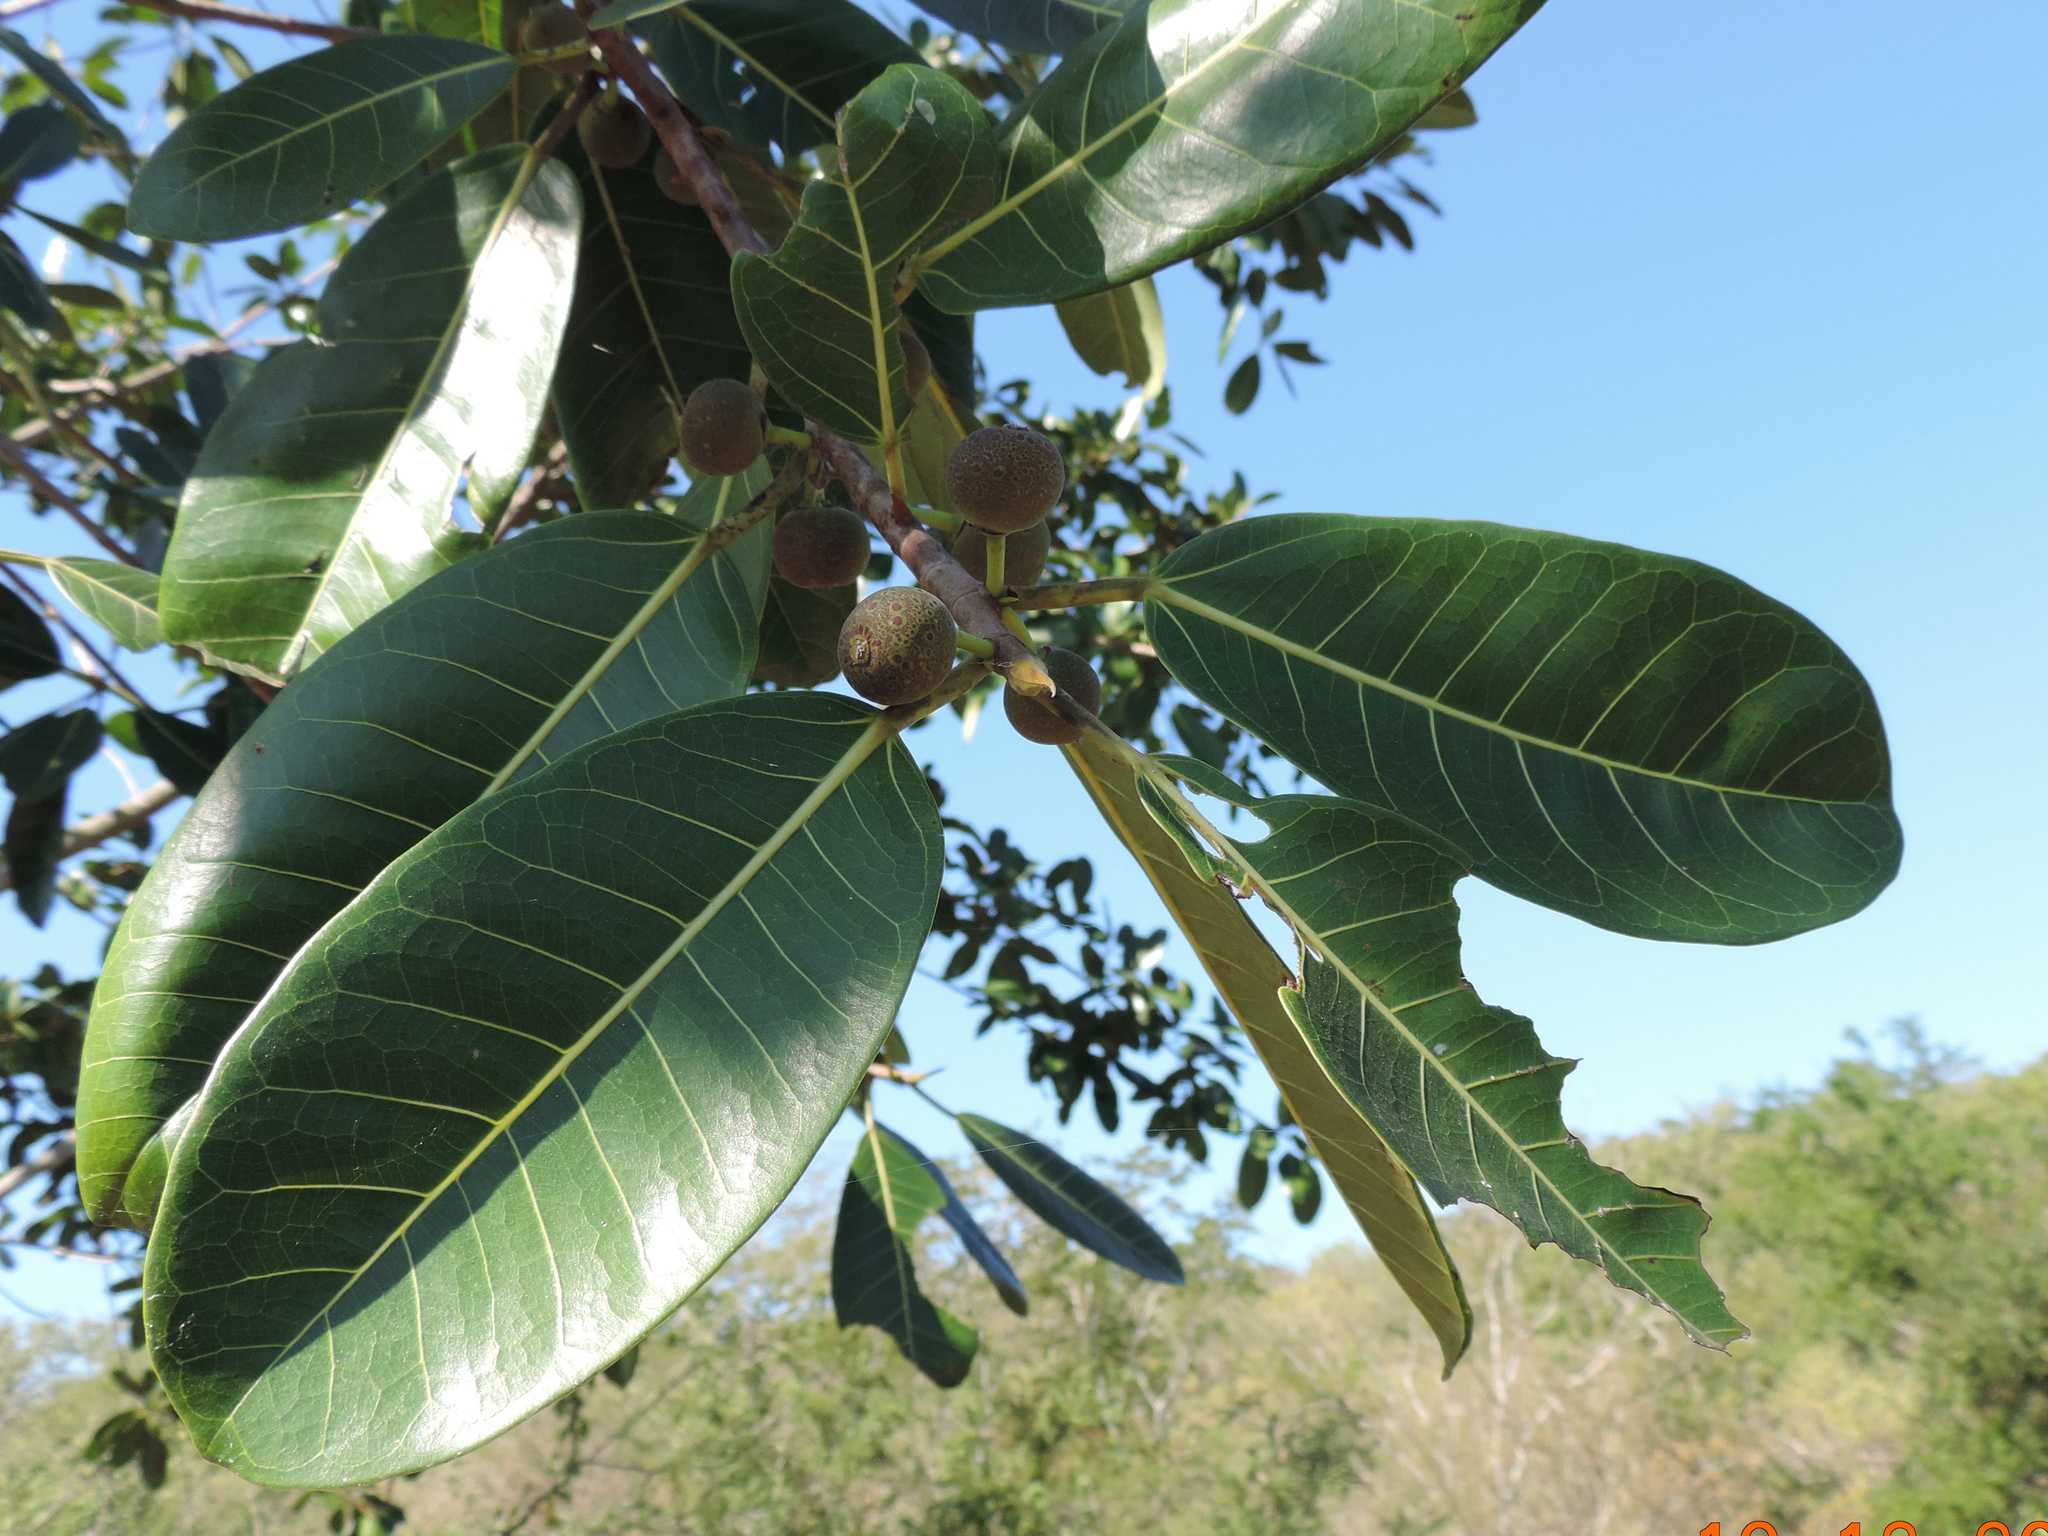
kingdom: Plantae
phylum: Tracheophyta
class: Magnoliopsida
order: Rosales
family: Moraceae
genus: Ficus
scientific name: Ficus crocata
